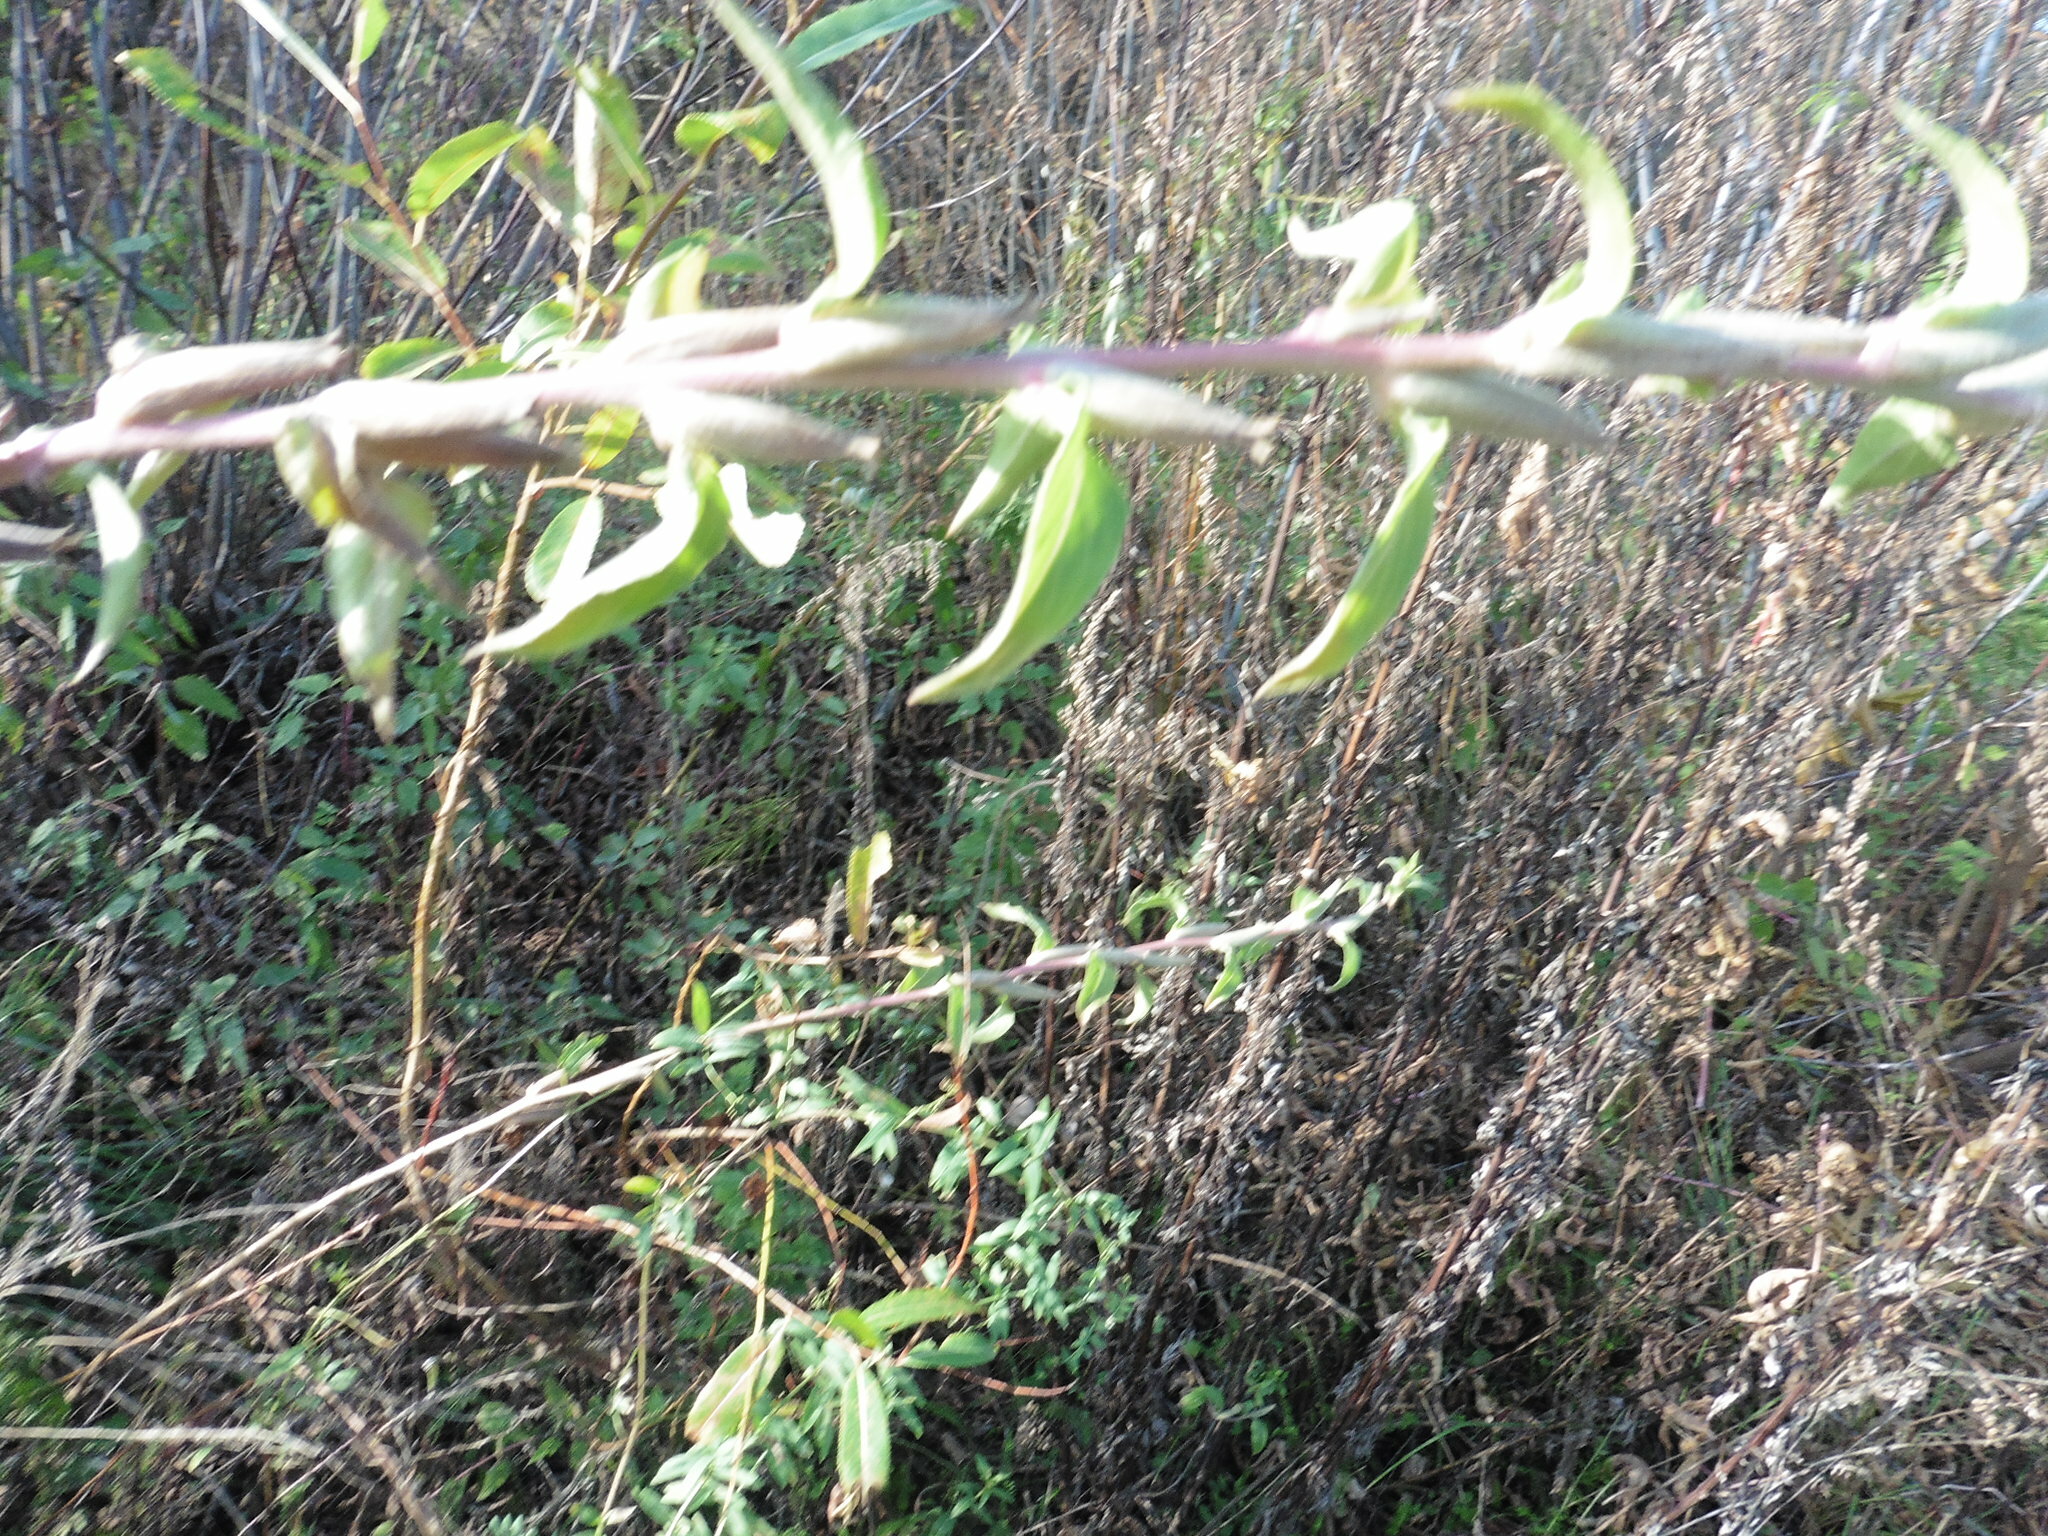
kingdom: Plantae
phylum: Tracheophyta
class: Magnoliopsida
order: Myrtales
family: Onagraceae
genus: Oenothera
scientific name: Oenothera villosa
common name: Hairy evening-primrose
